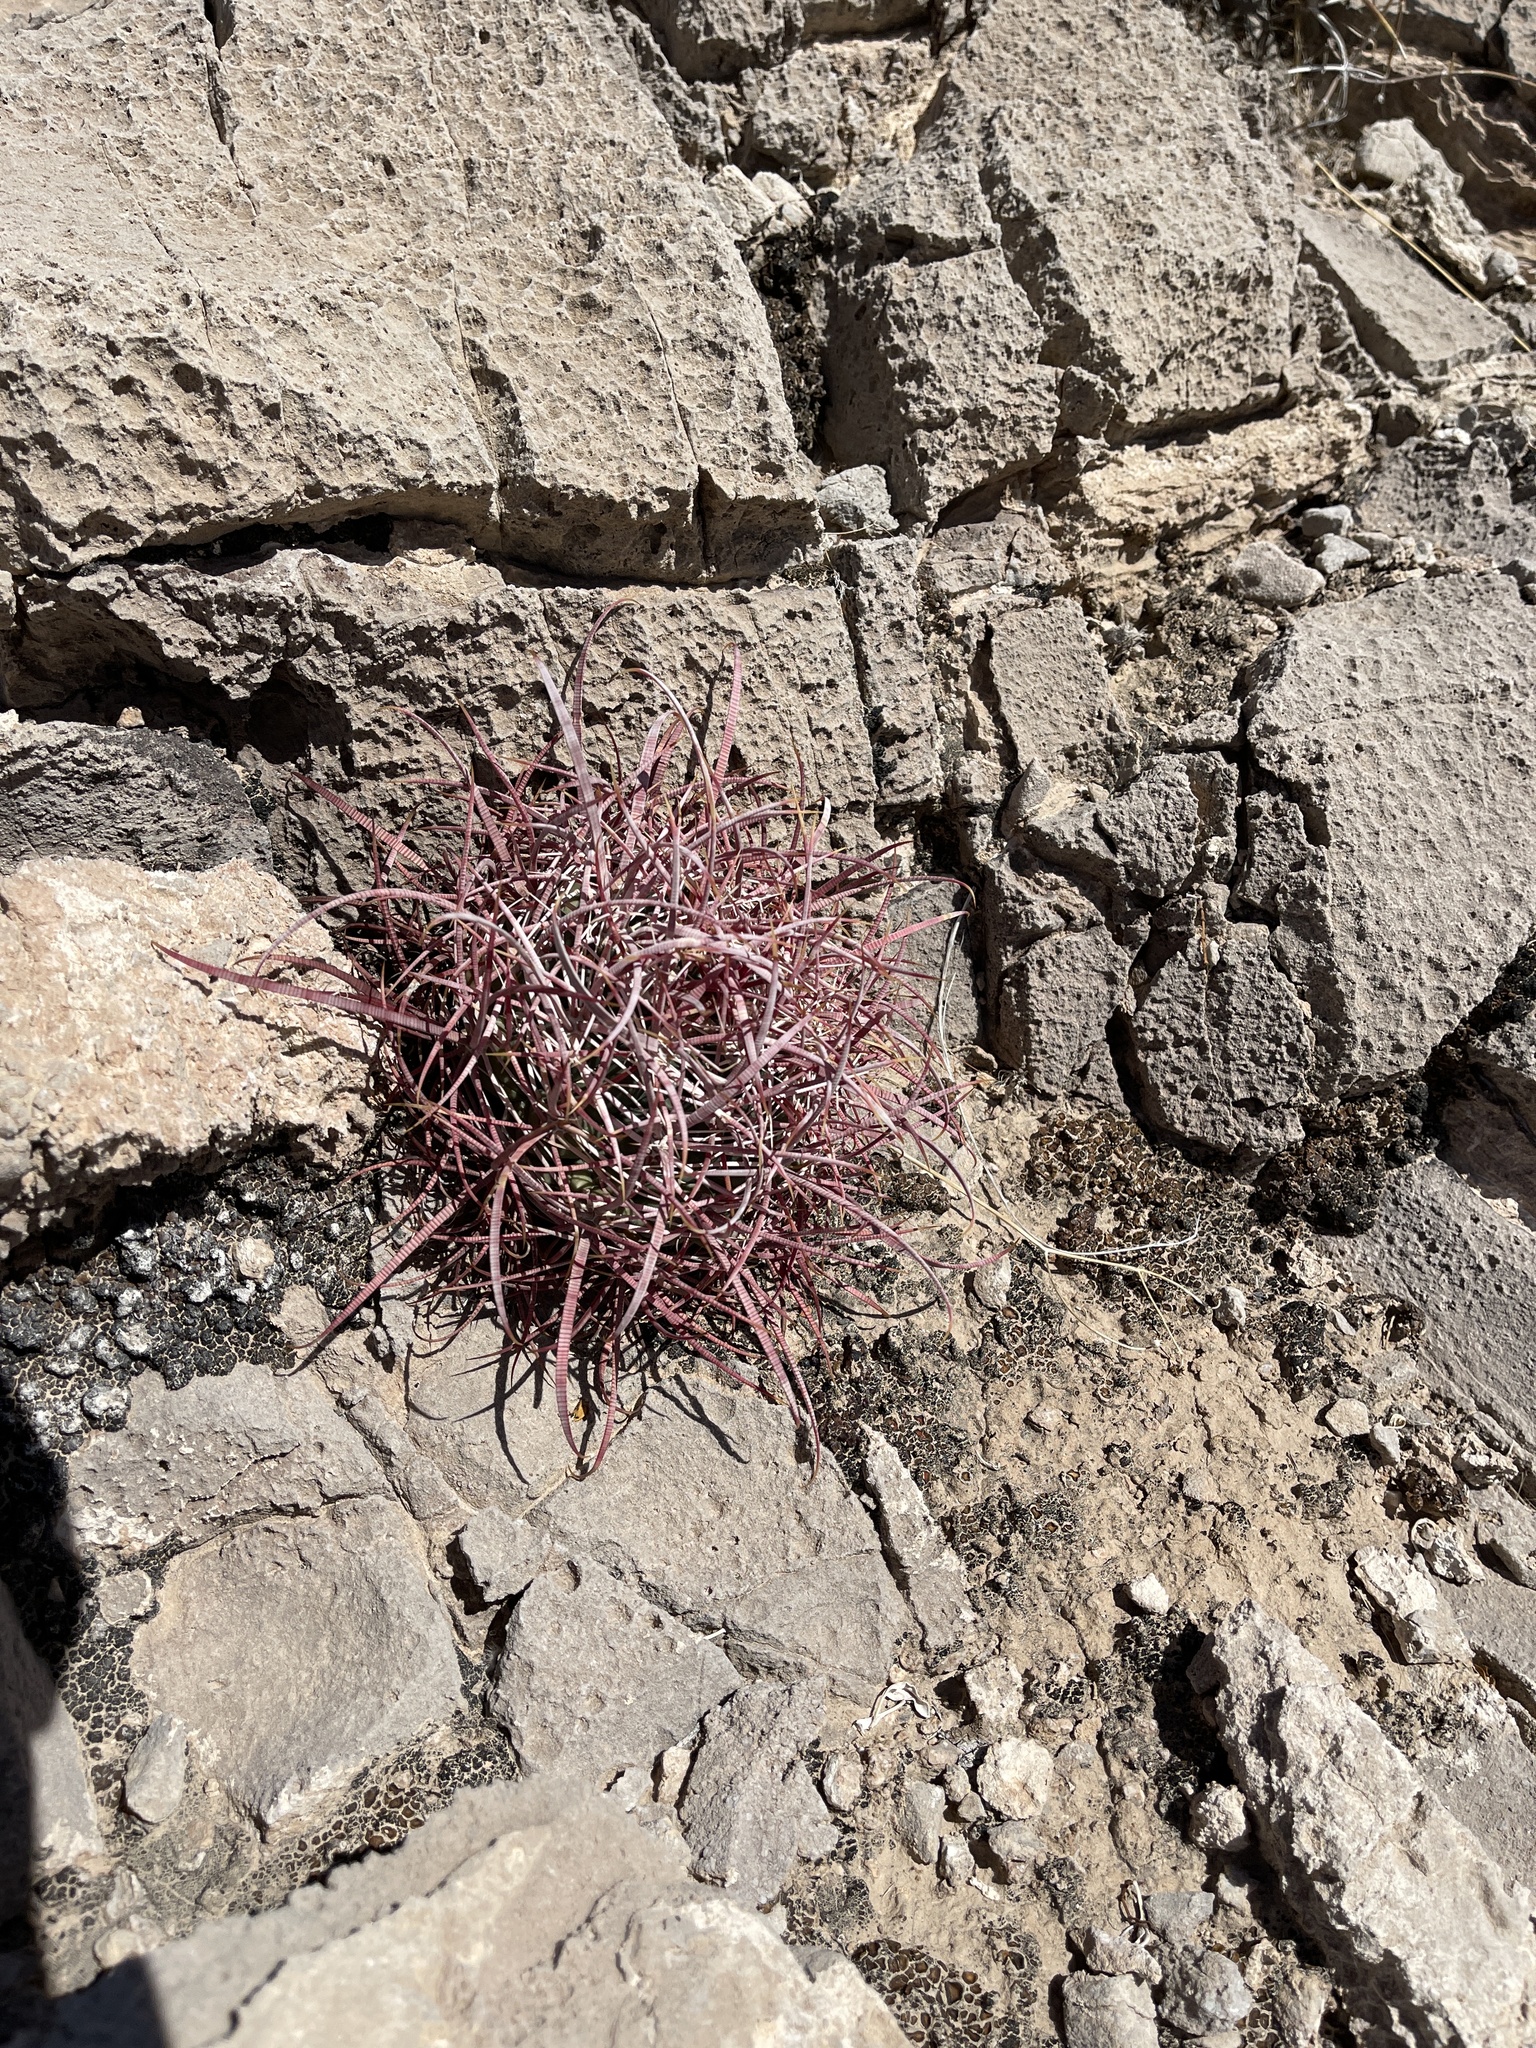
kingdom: Plantae
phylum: Tracheophyta
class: Magnoliopsida
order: Caryophyllales
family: Cactaceae
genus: Ferocactus
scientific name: Ferocactus cylindraceus
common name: California barrel cactus
